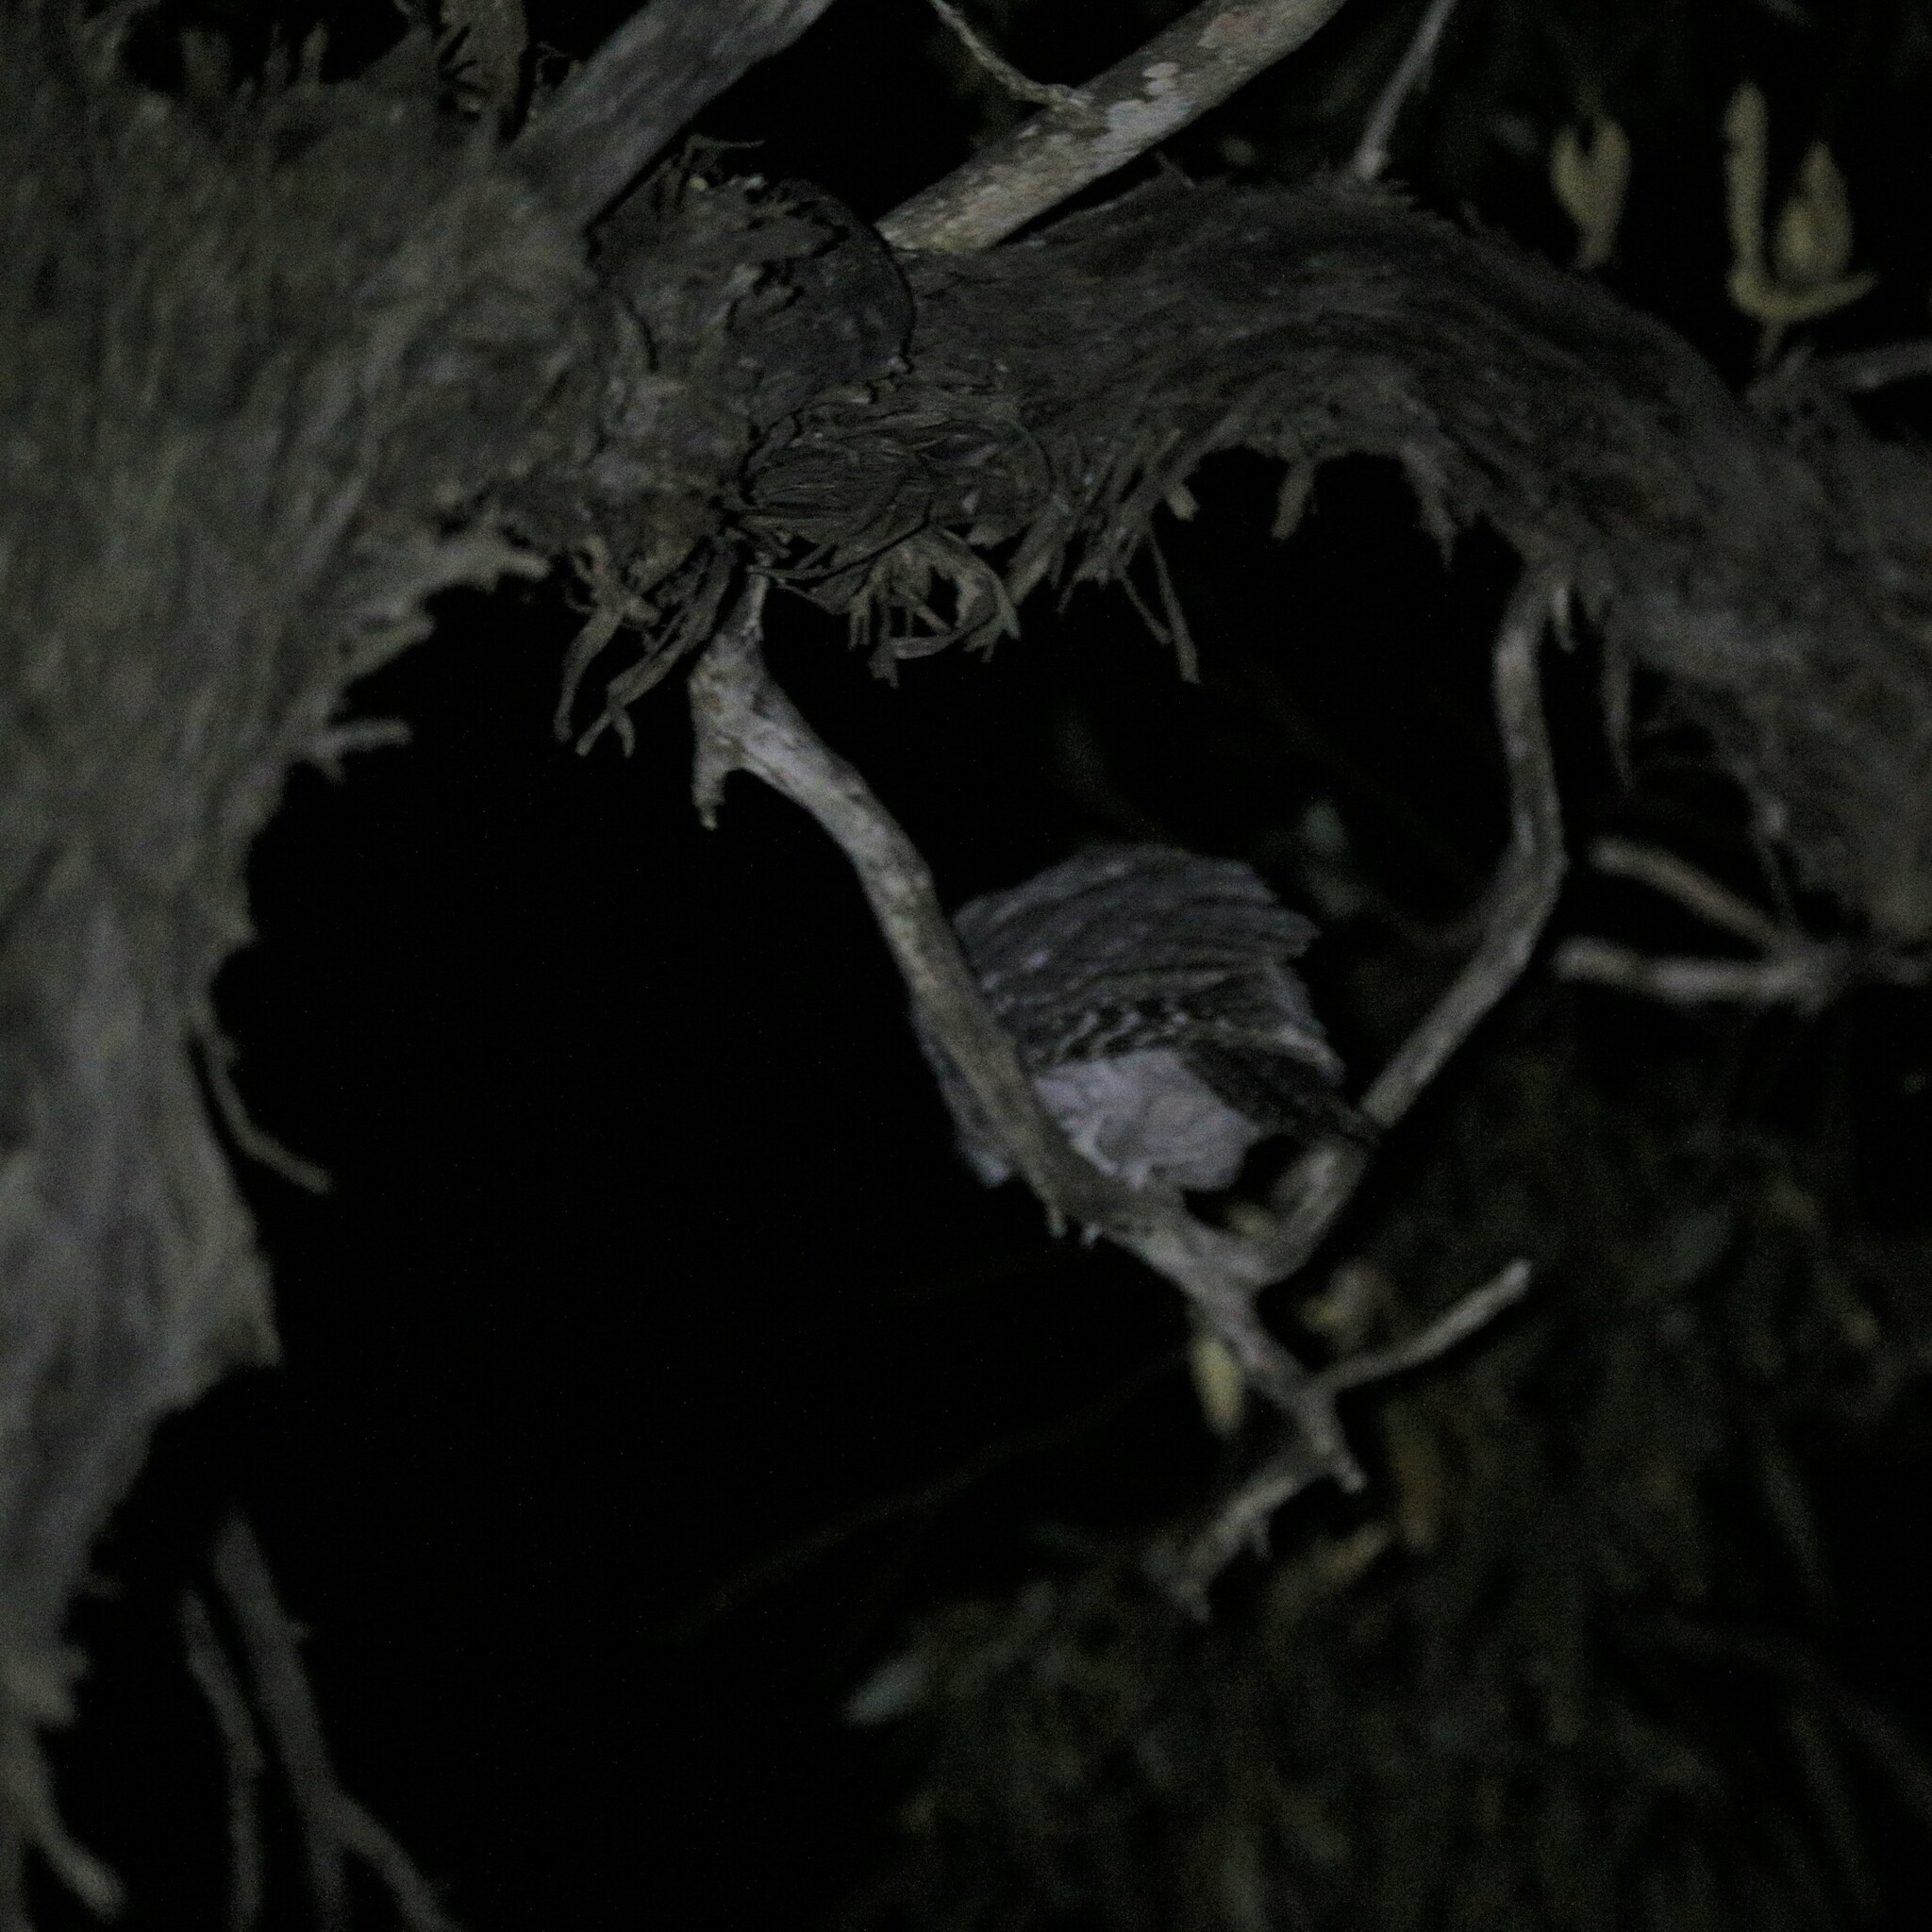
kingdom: Animalia
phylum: Chordata
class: Aves
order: Caprimulgiformes
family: Podargidae
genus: Podargus
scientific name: Podargus strigoides
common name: Tawny frogmouth
